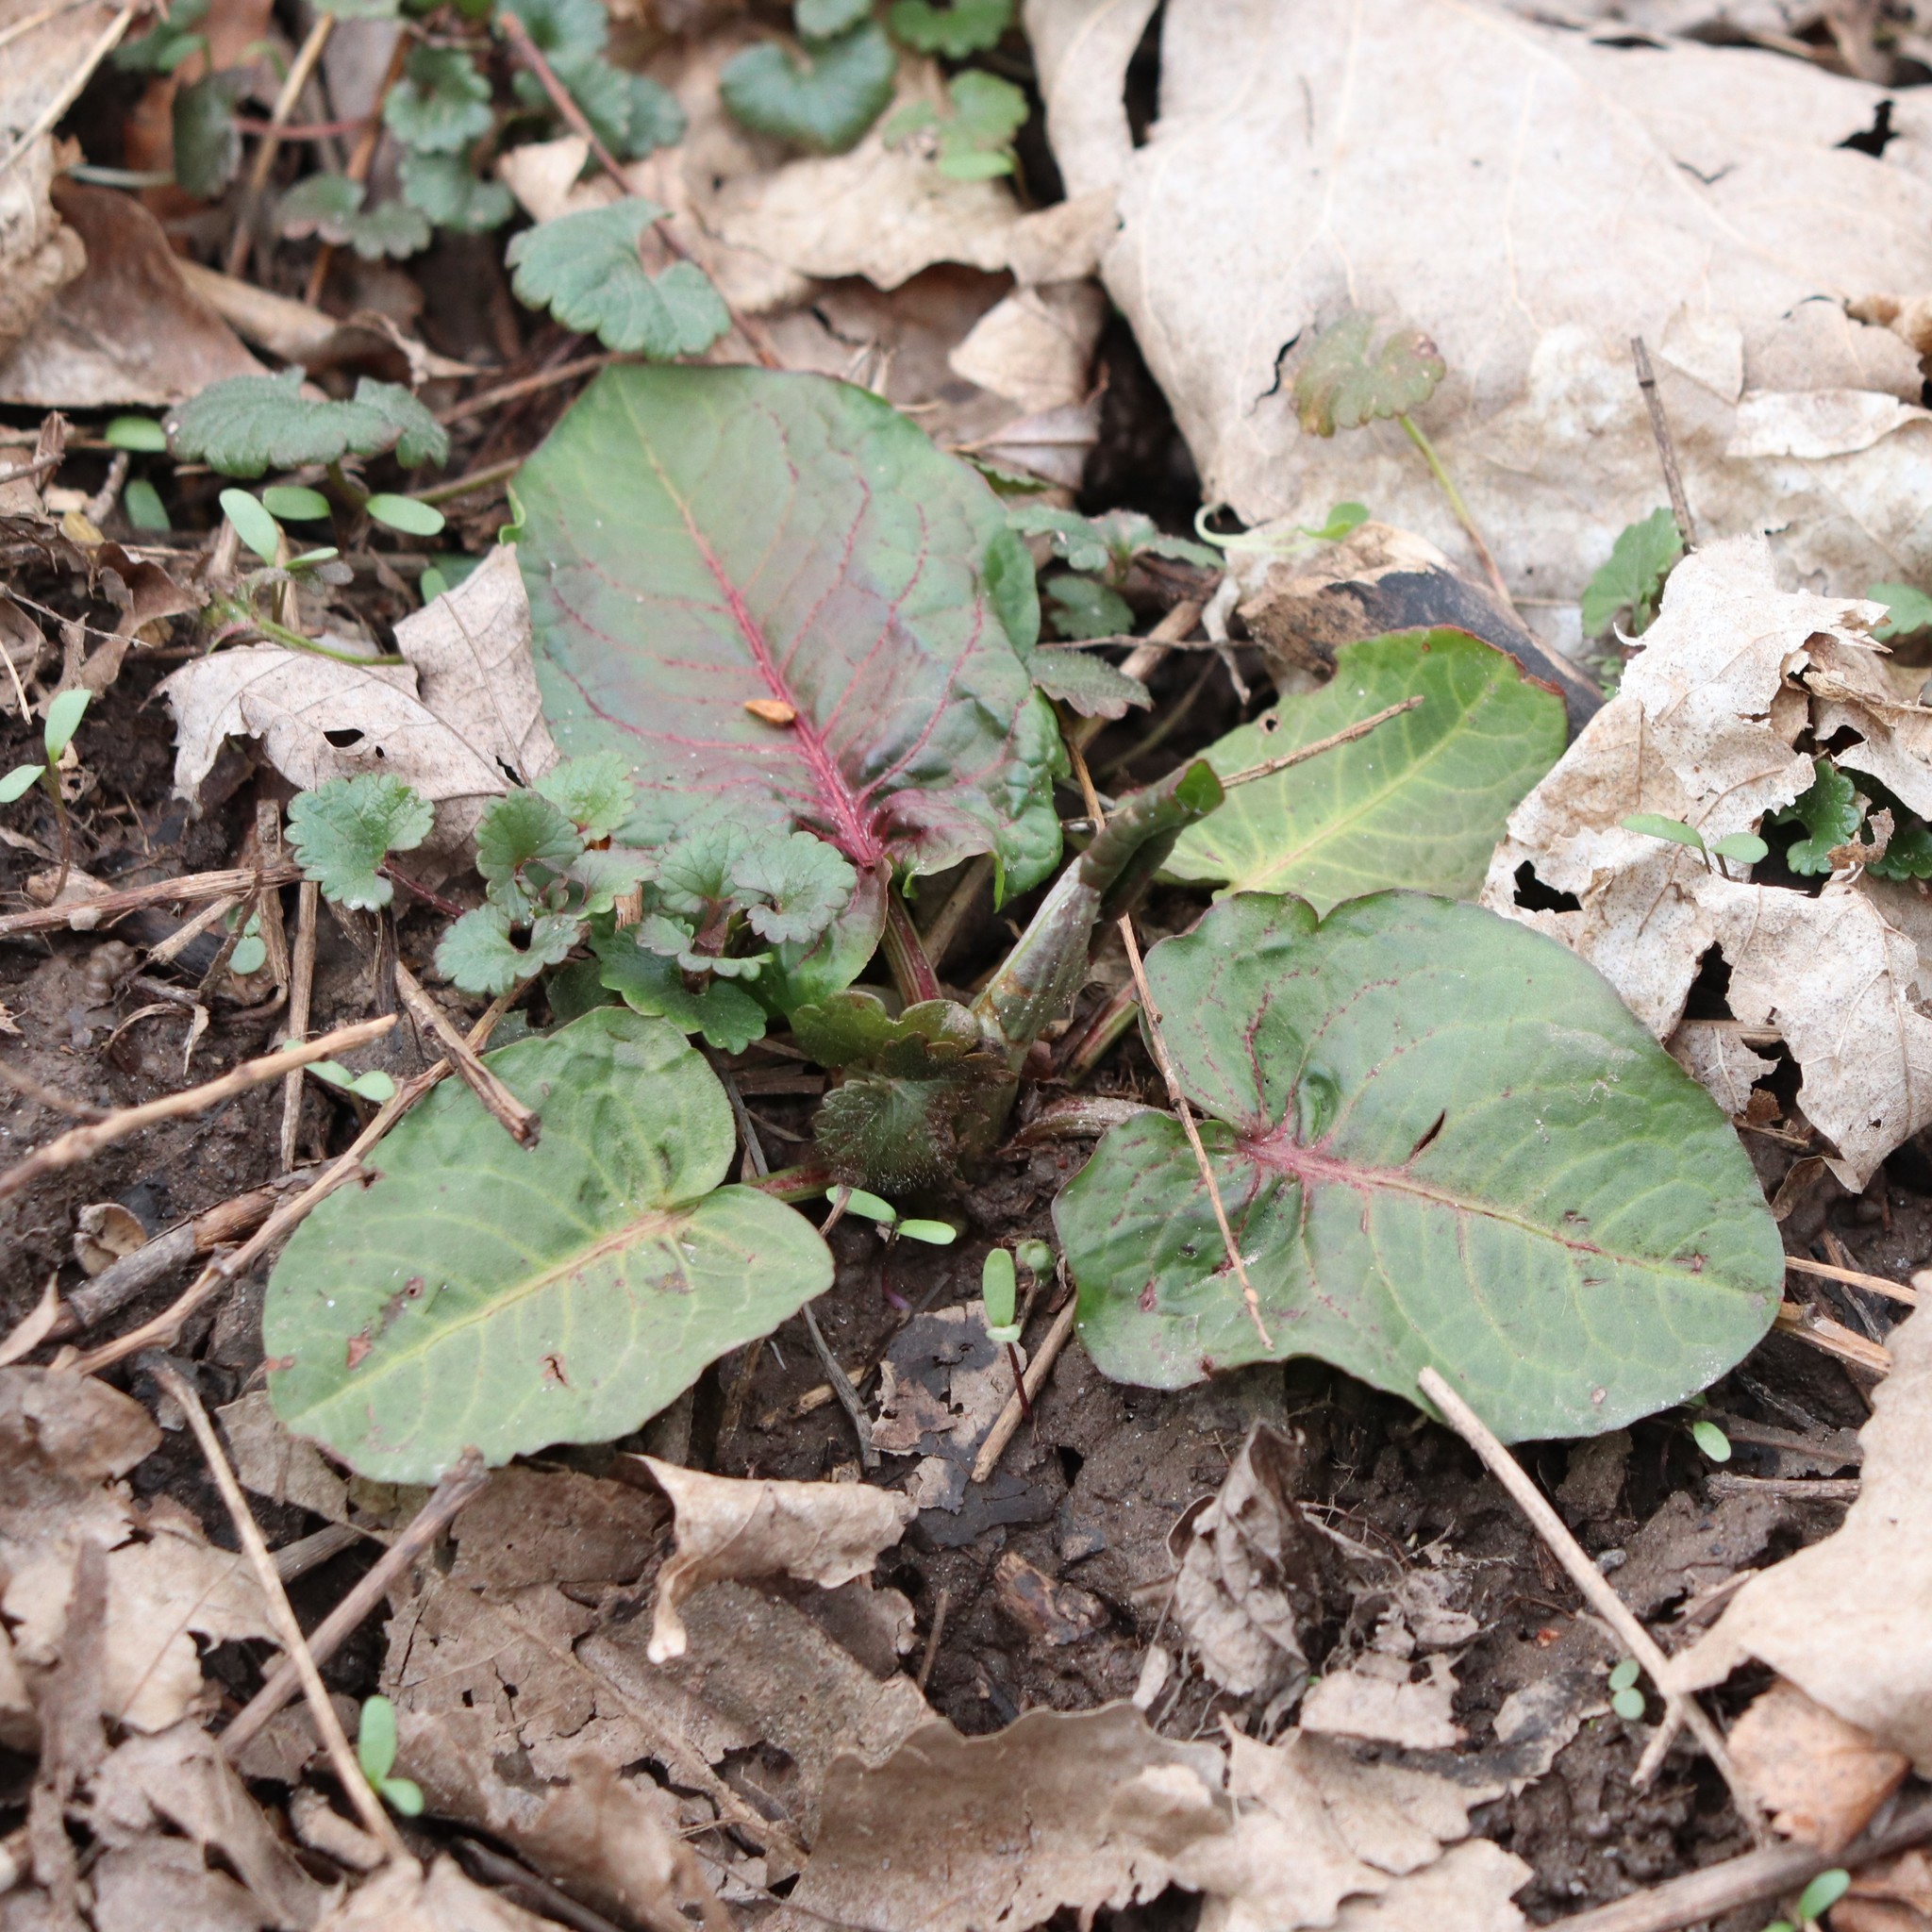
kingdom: Plantae
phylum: Tracheophyta
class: Magnoliopsida
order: Caryophyllales
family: Polygonaceae
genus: Rumex
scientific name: Rumex obtusifolius
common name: Bitter dock
